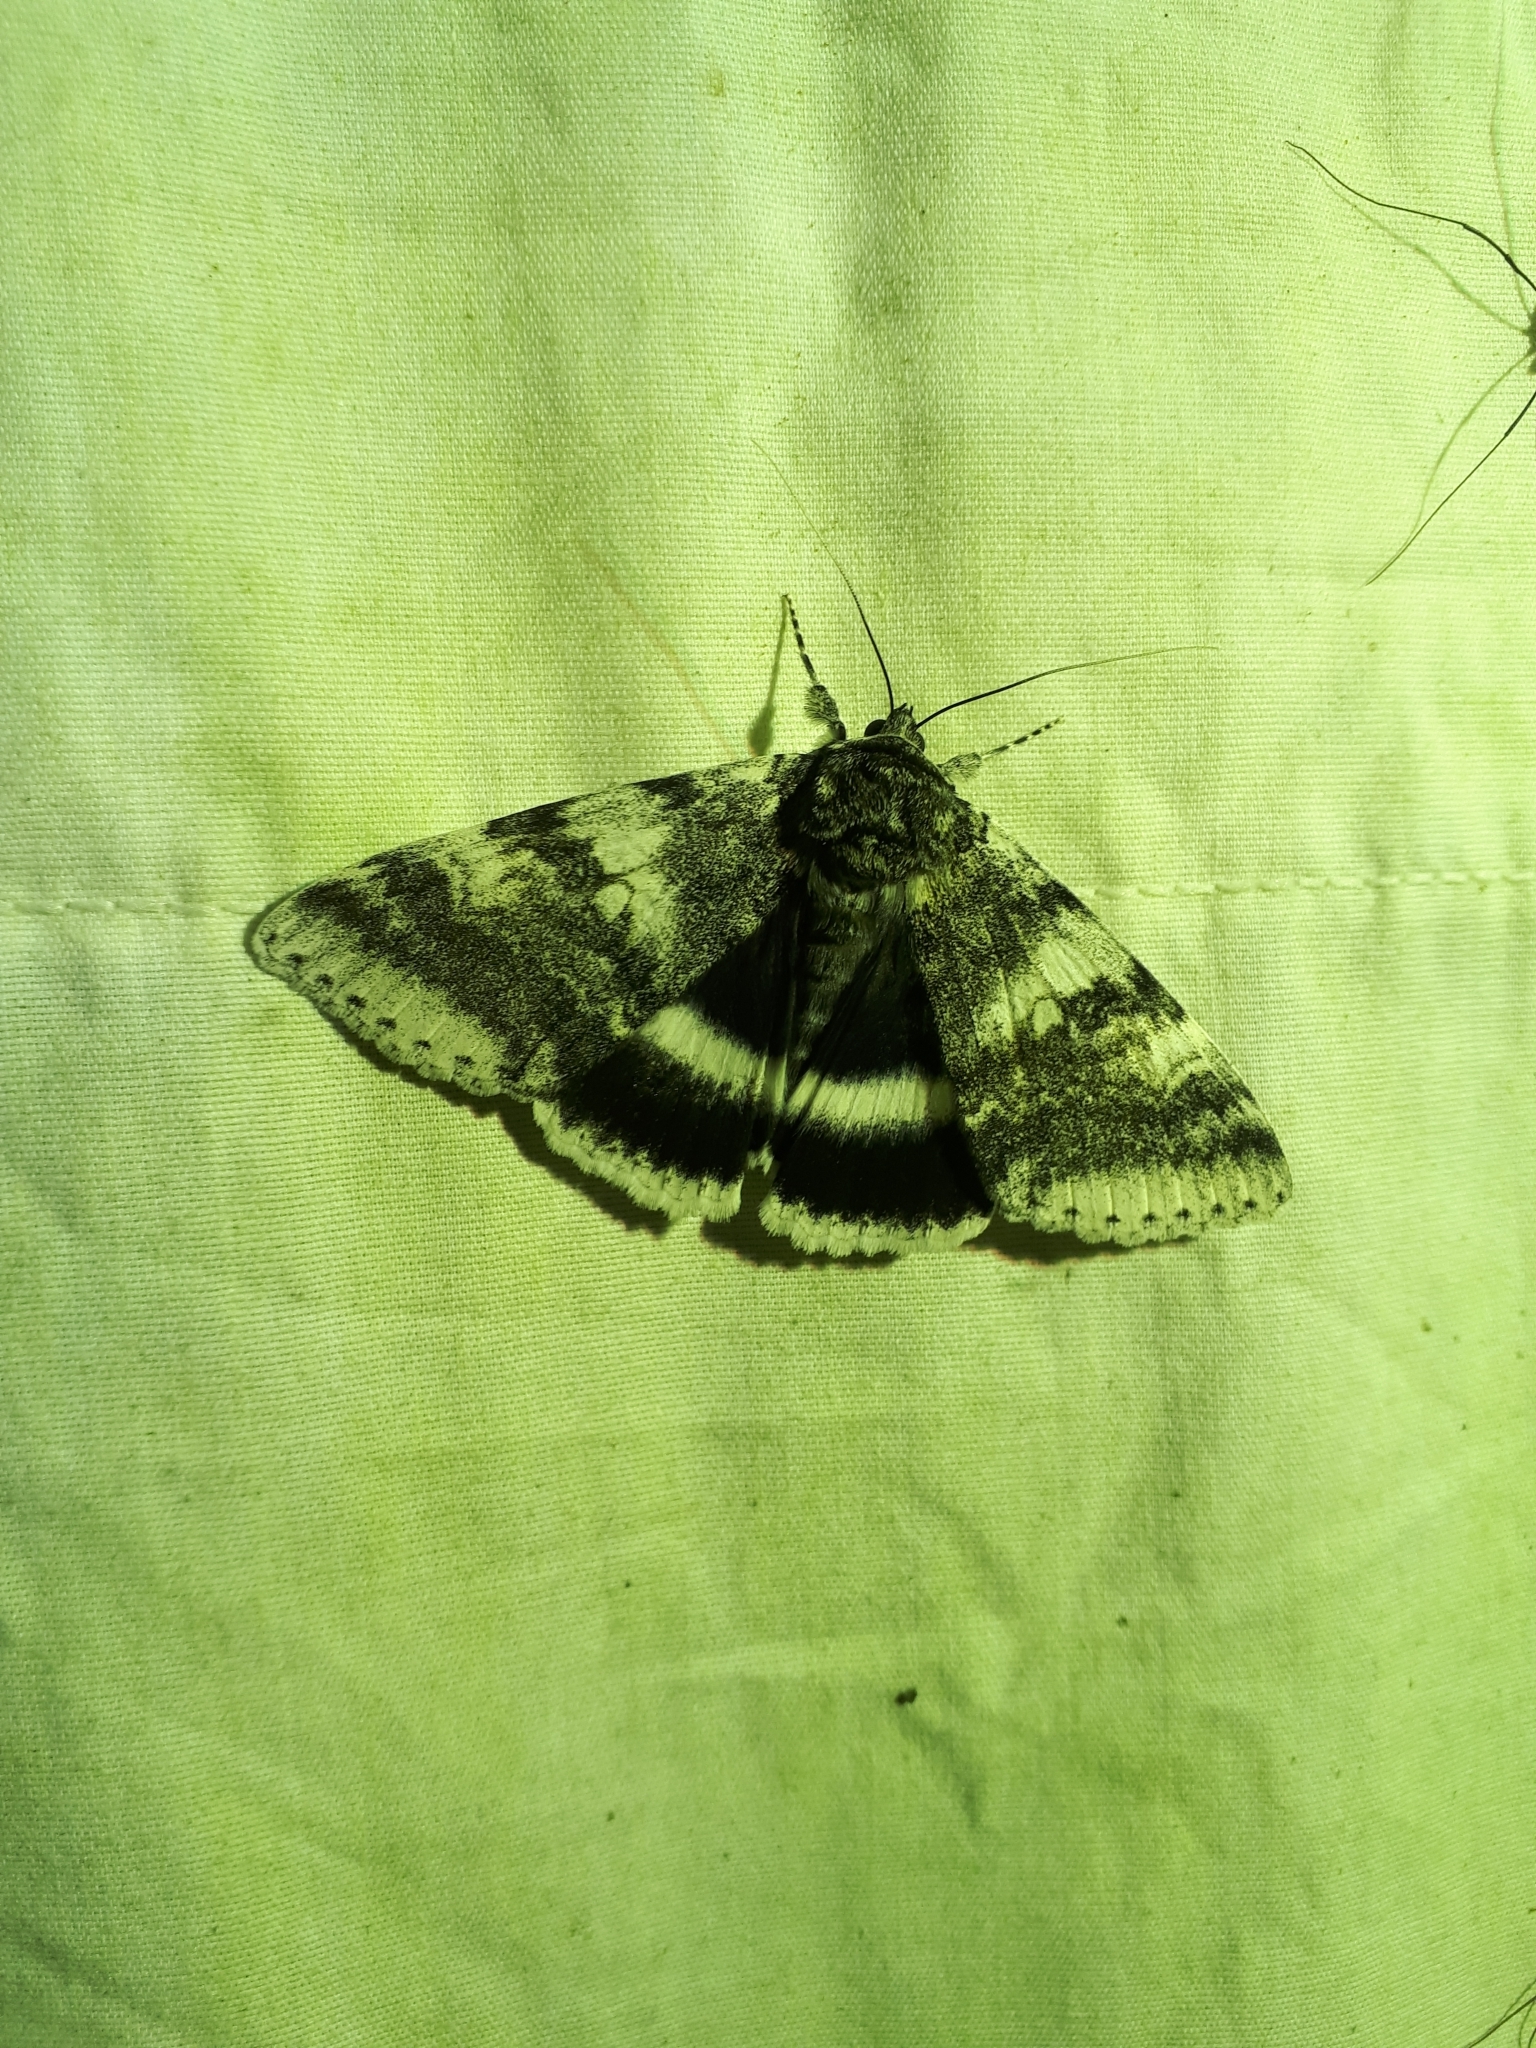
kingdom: Animalia
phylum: Arthropoda
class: Insecta
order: Lepidoptera
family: Erebidae
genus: Catocala
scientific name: Catocala relicta
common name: White underwing
